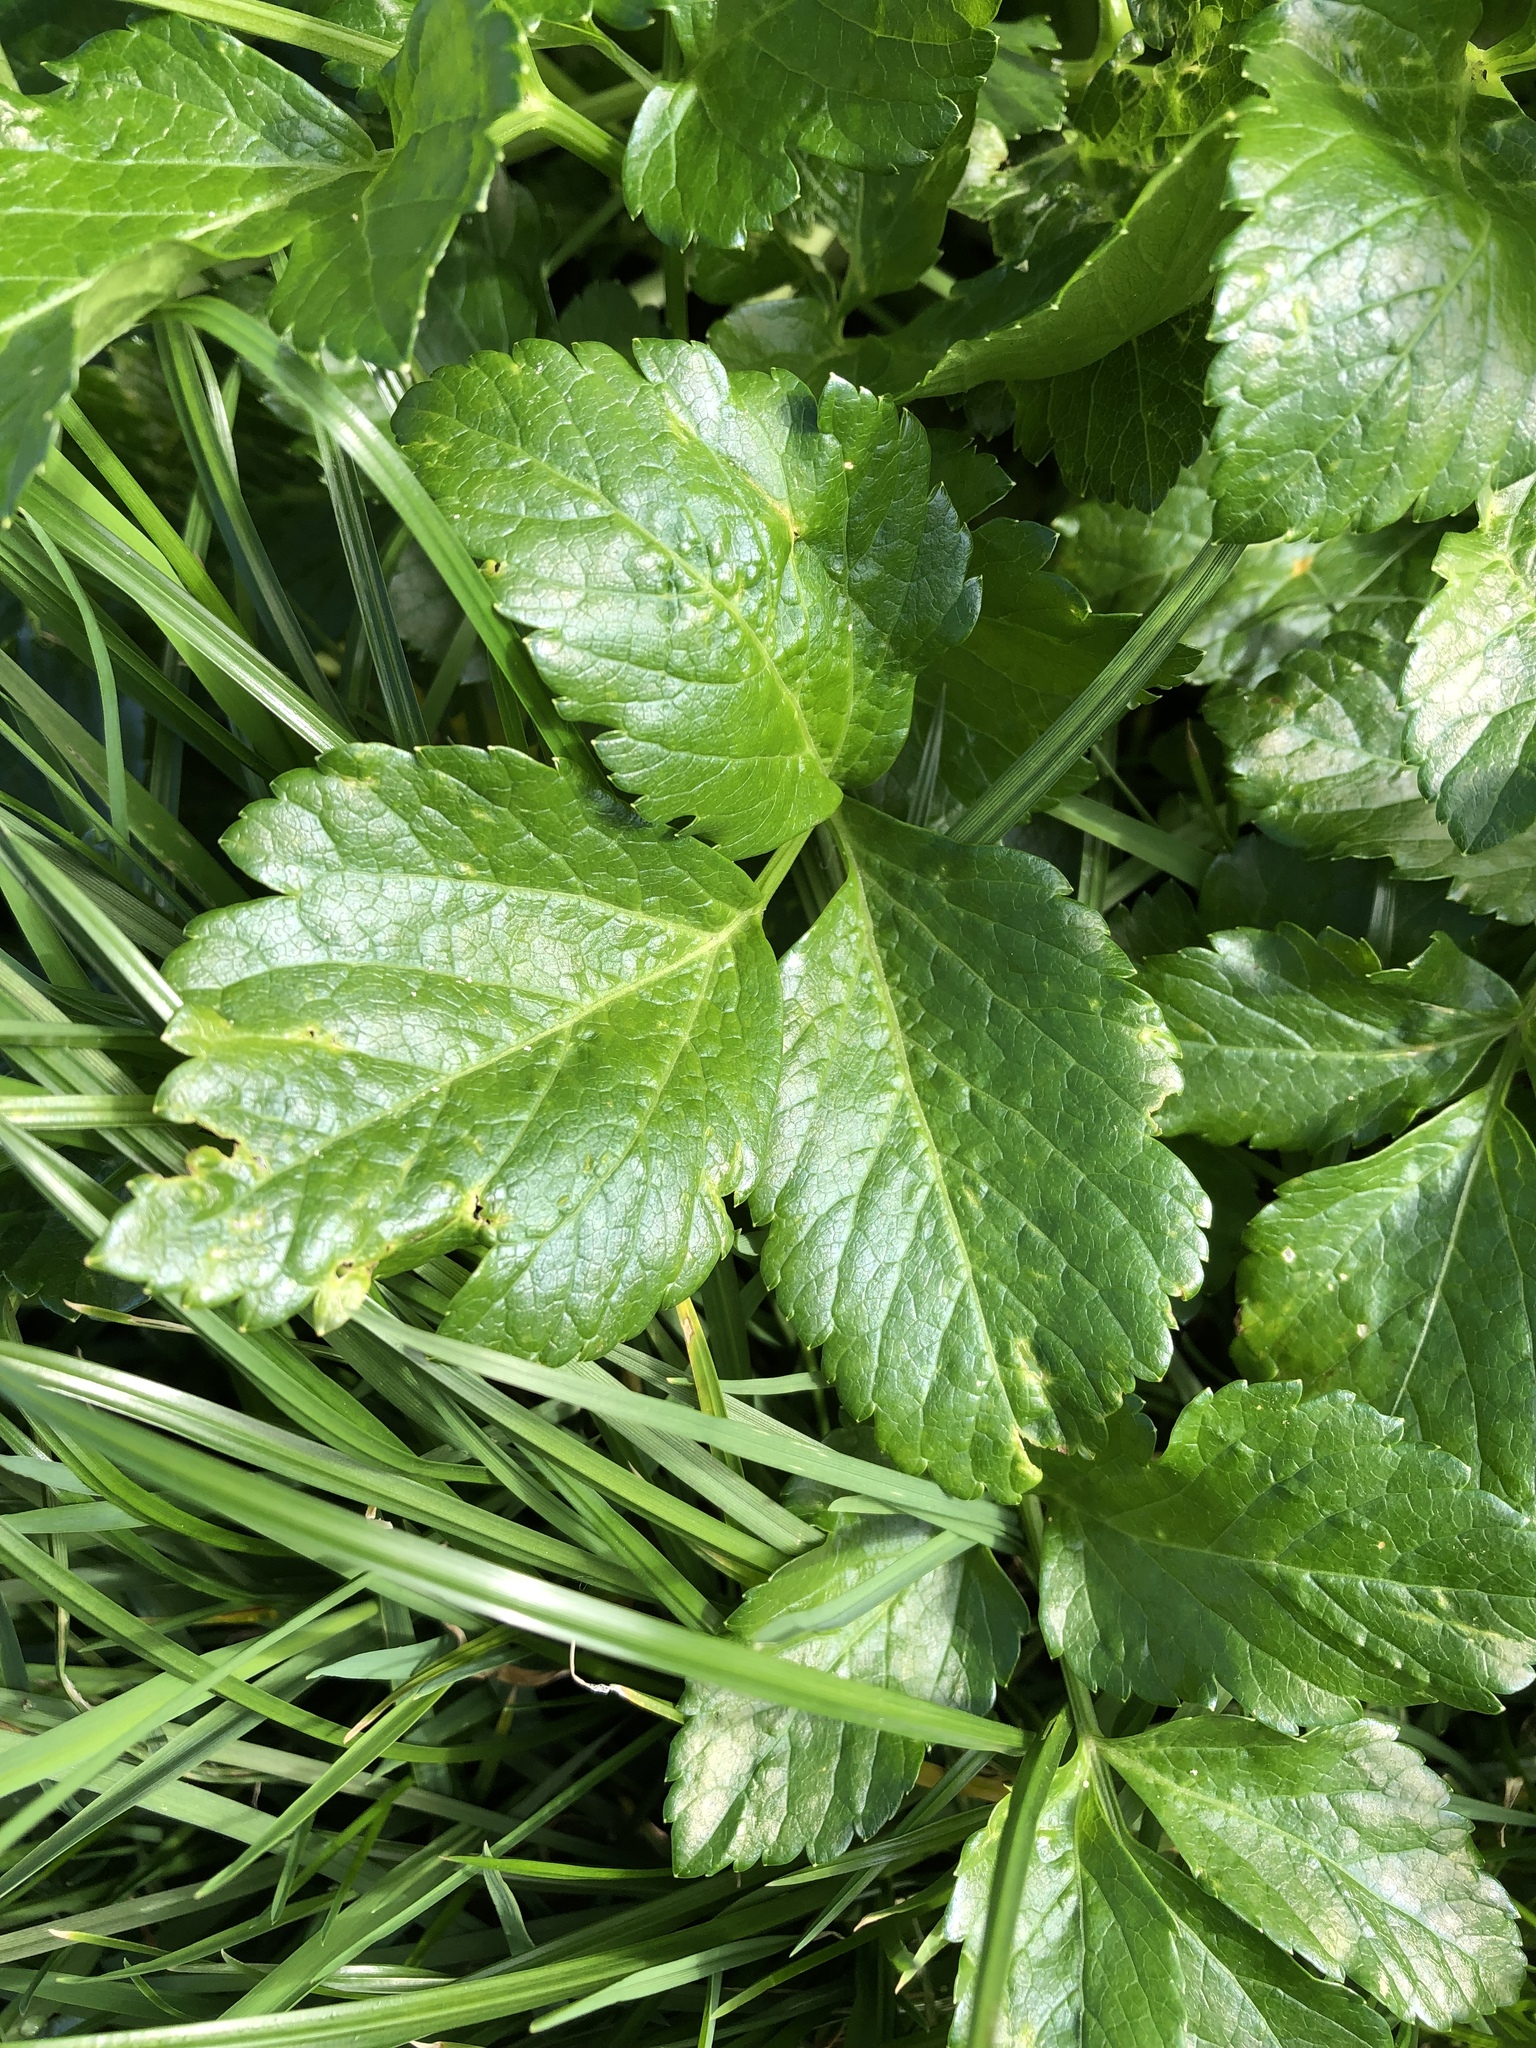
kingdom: Plantae
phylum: Tracheophyta
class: Magnoliopsida
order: Apiales
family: Apiaceae
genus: Smyrnium
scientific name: Smyrnium olusatrum
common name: Alexanders
